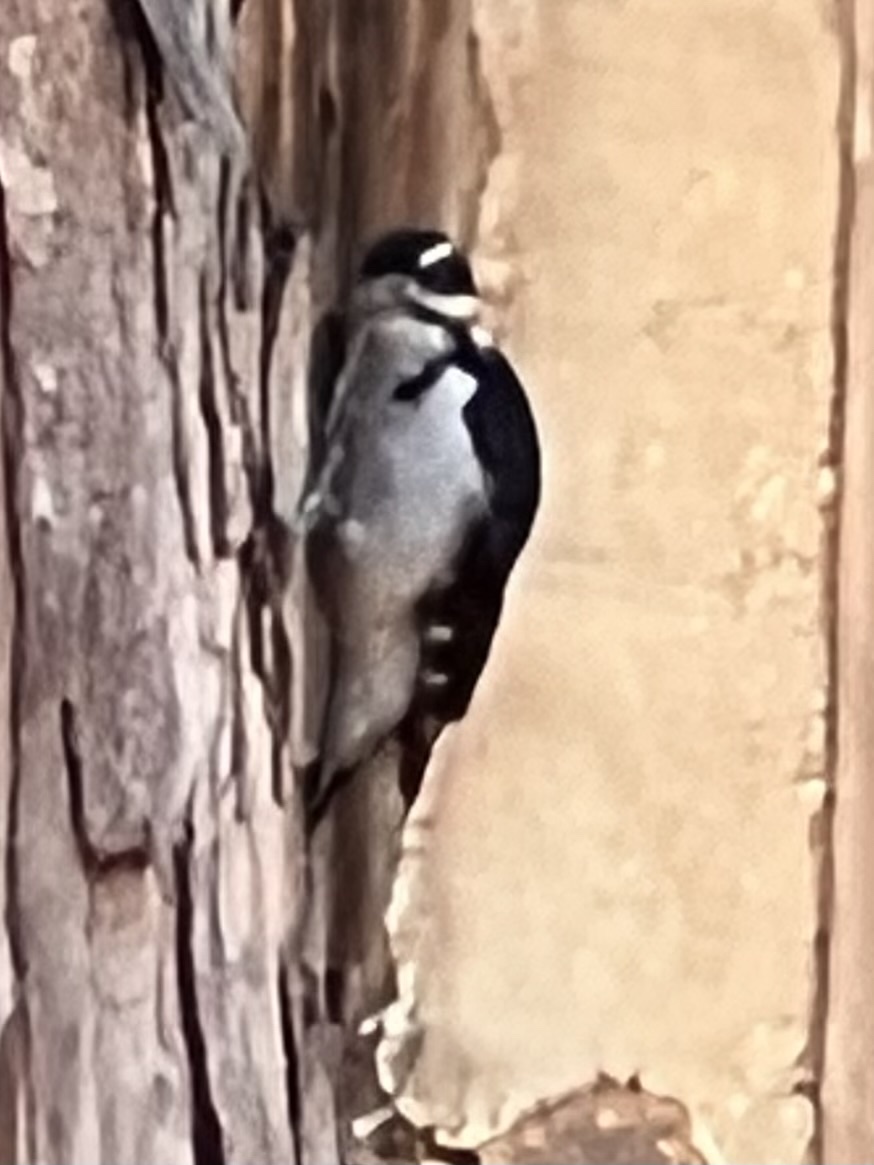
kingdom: Animalia
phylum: Chordata
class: Aves
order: Piciformes
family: Picidae
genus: Leuconotopicus
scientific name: Leuconotopicus villosus
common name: Hairy woodpecker
